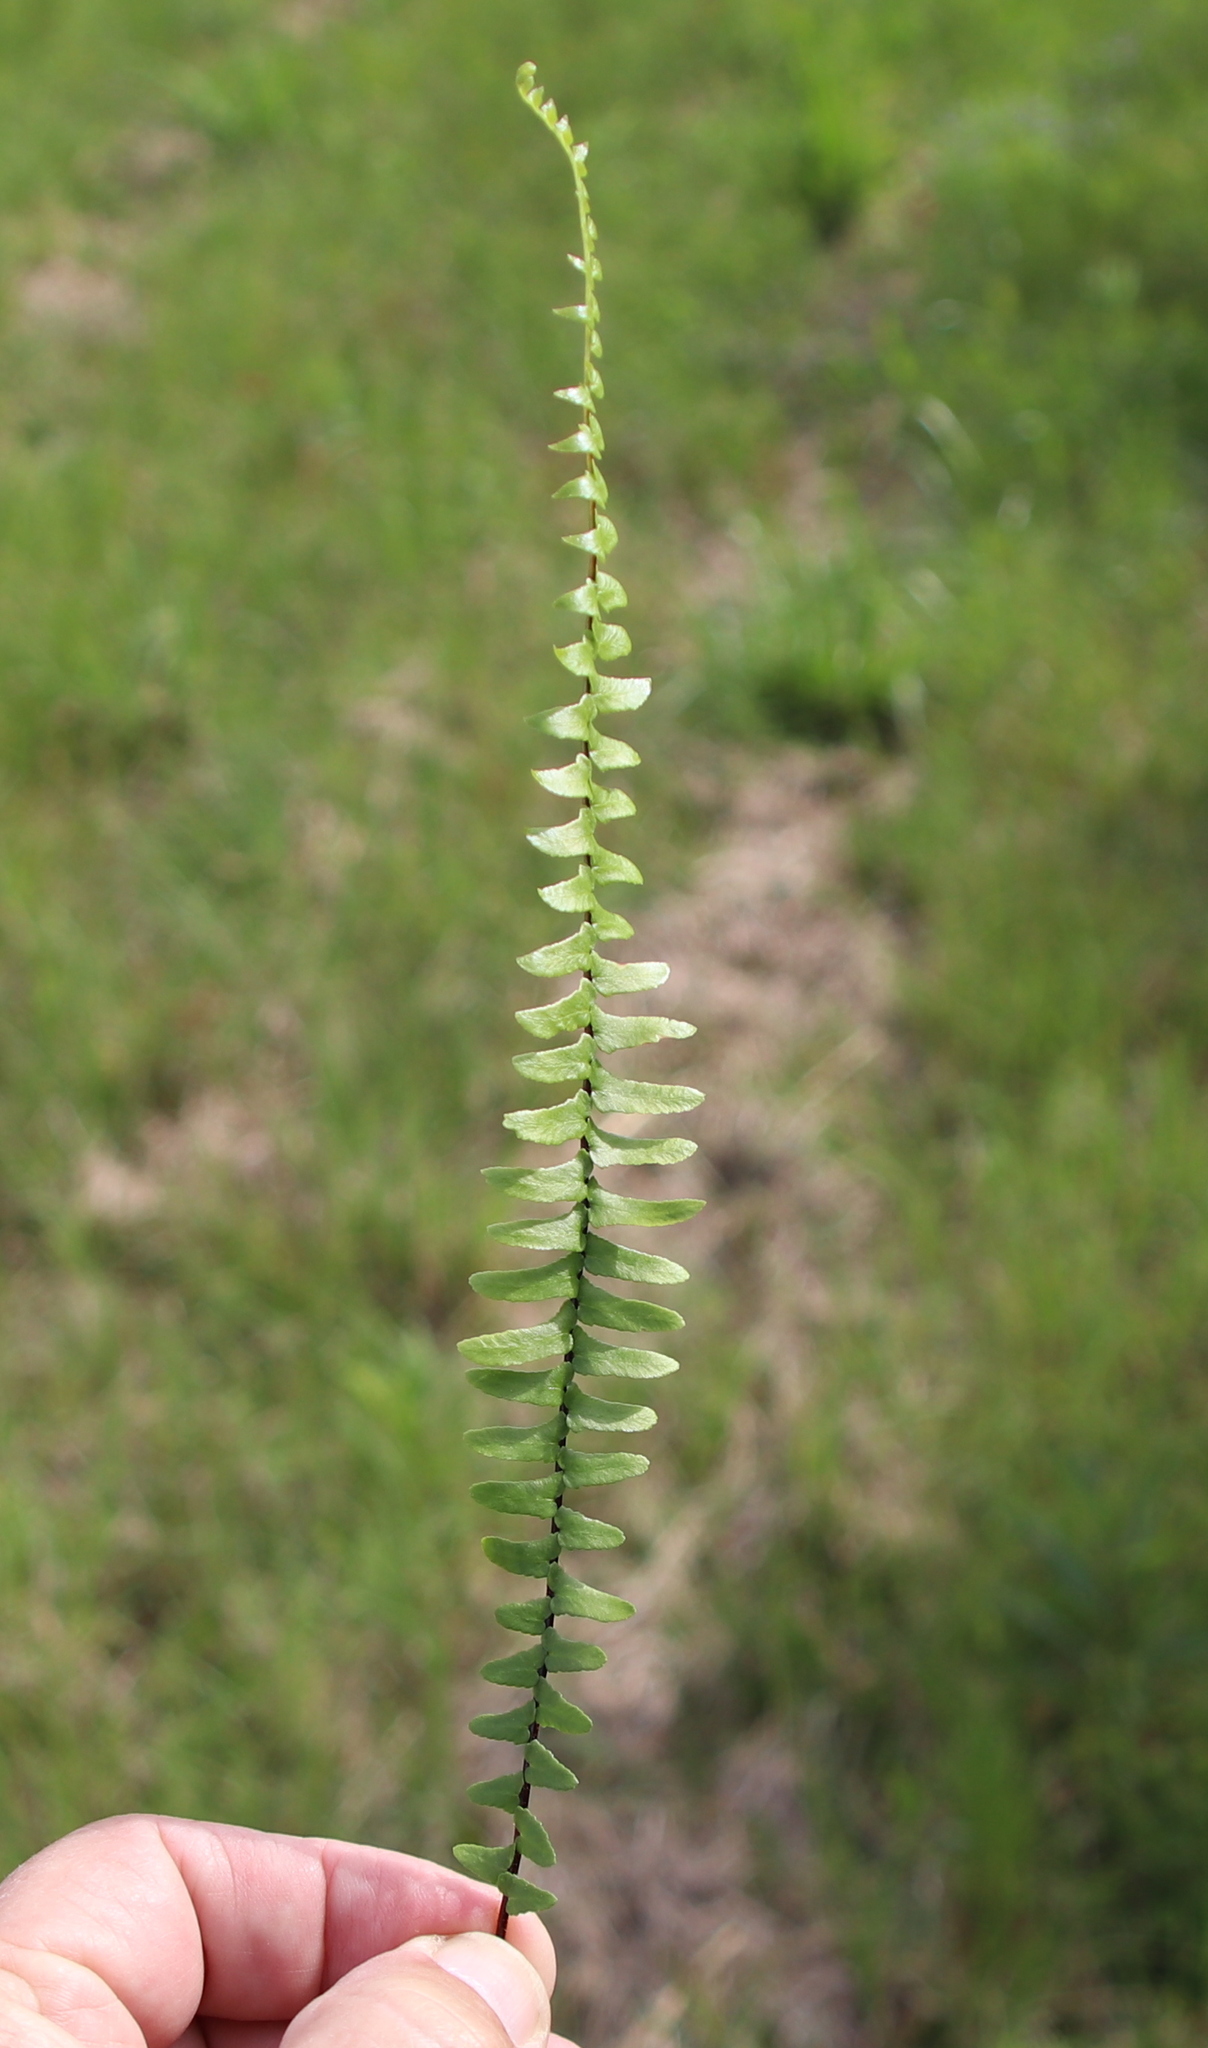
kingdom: Plantae
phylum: Tracheophyta
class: Polypodiopsida
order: Polypodiales
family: Aspleniaceae
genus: Asplenium
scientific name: Asplenium platyneuron
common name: Ebony spleenwort
